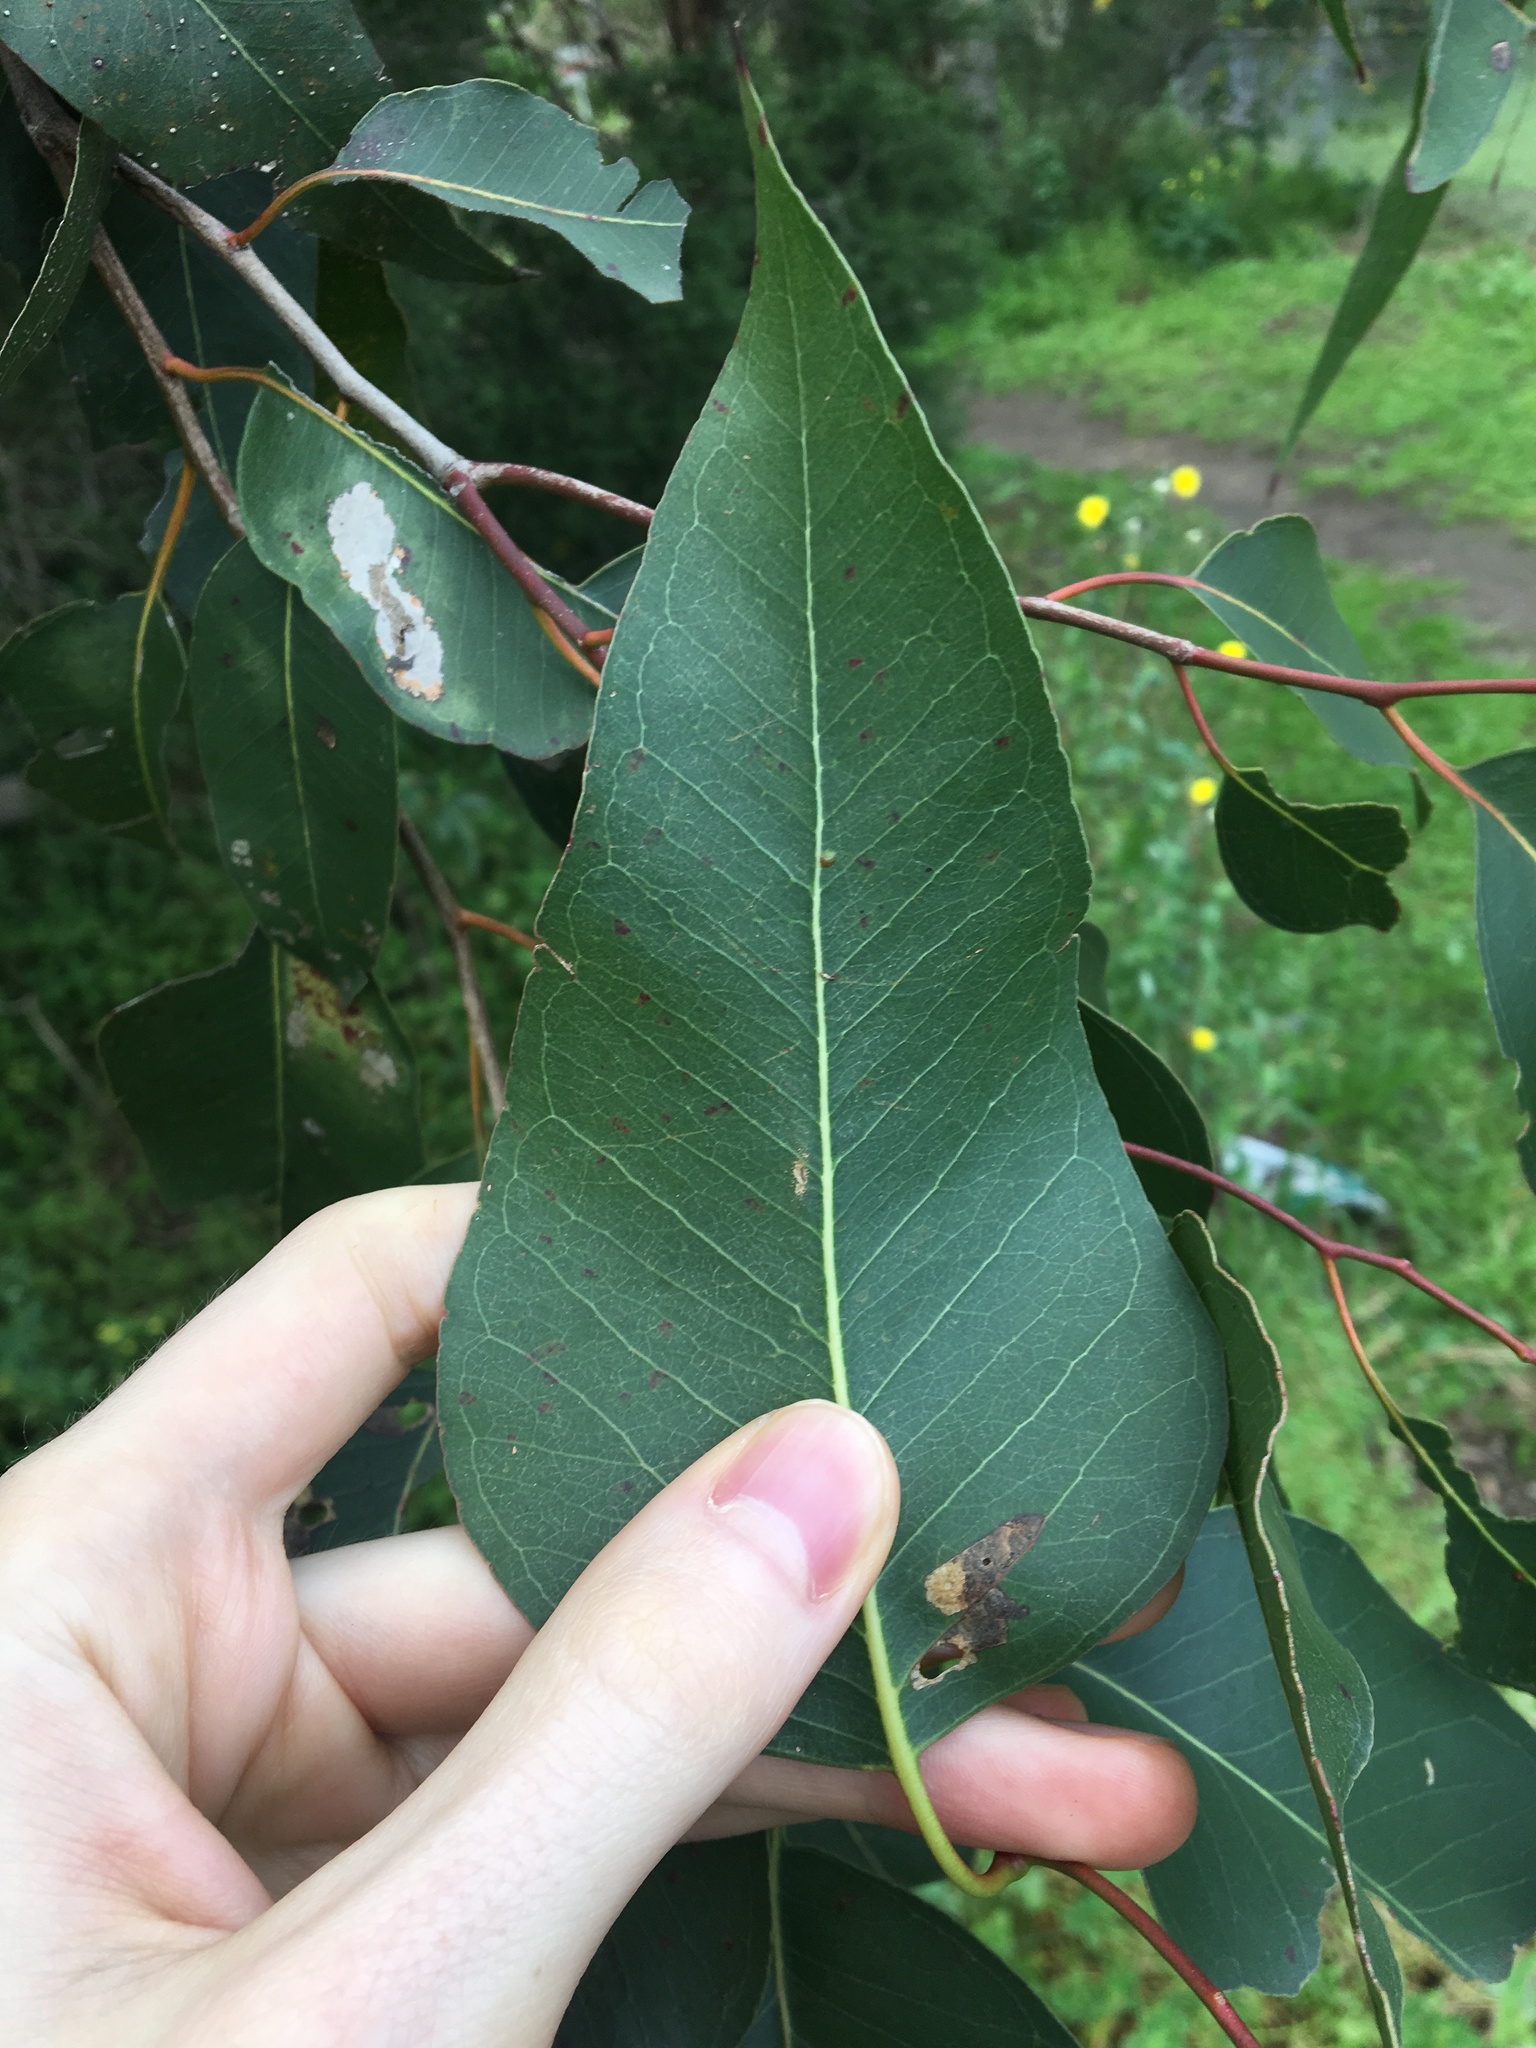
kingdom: Plantae
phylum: Tracheophyta
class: Magnoliopsida
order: Myrtales
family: Myrtaceae
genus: Eucalyptus
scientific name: Eucalyptus amplifolia
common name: Cabbage gum
